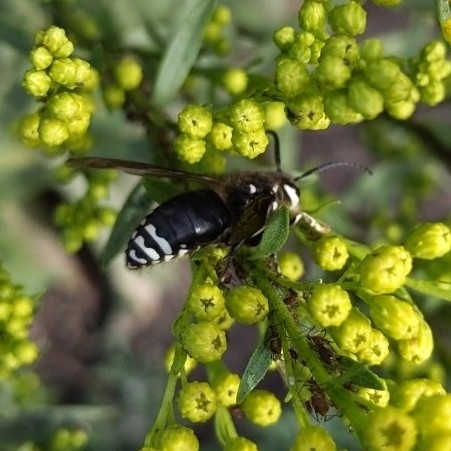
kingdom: Animalia
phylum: Arthropoda
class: Insecta
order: Hymenoptera
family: Vespidae
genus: Dolichovespula
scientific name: Dolichovespula maculata
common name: Bald-faced hornet
